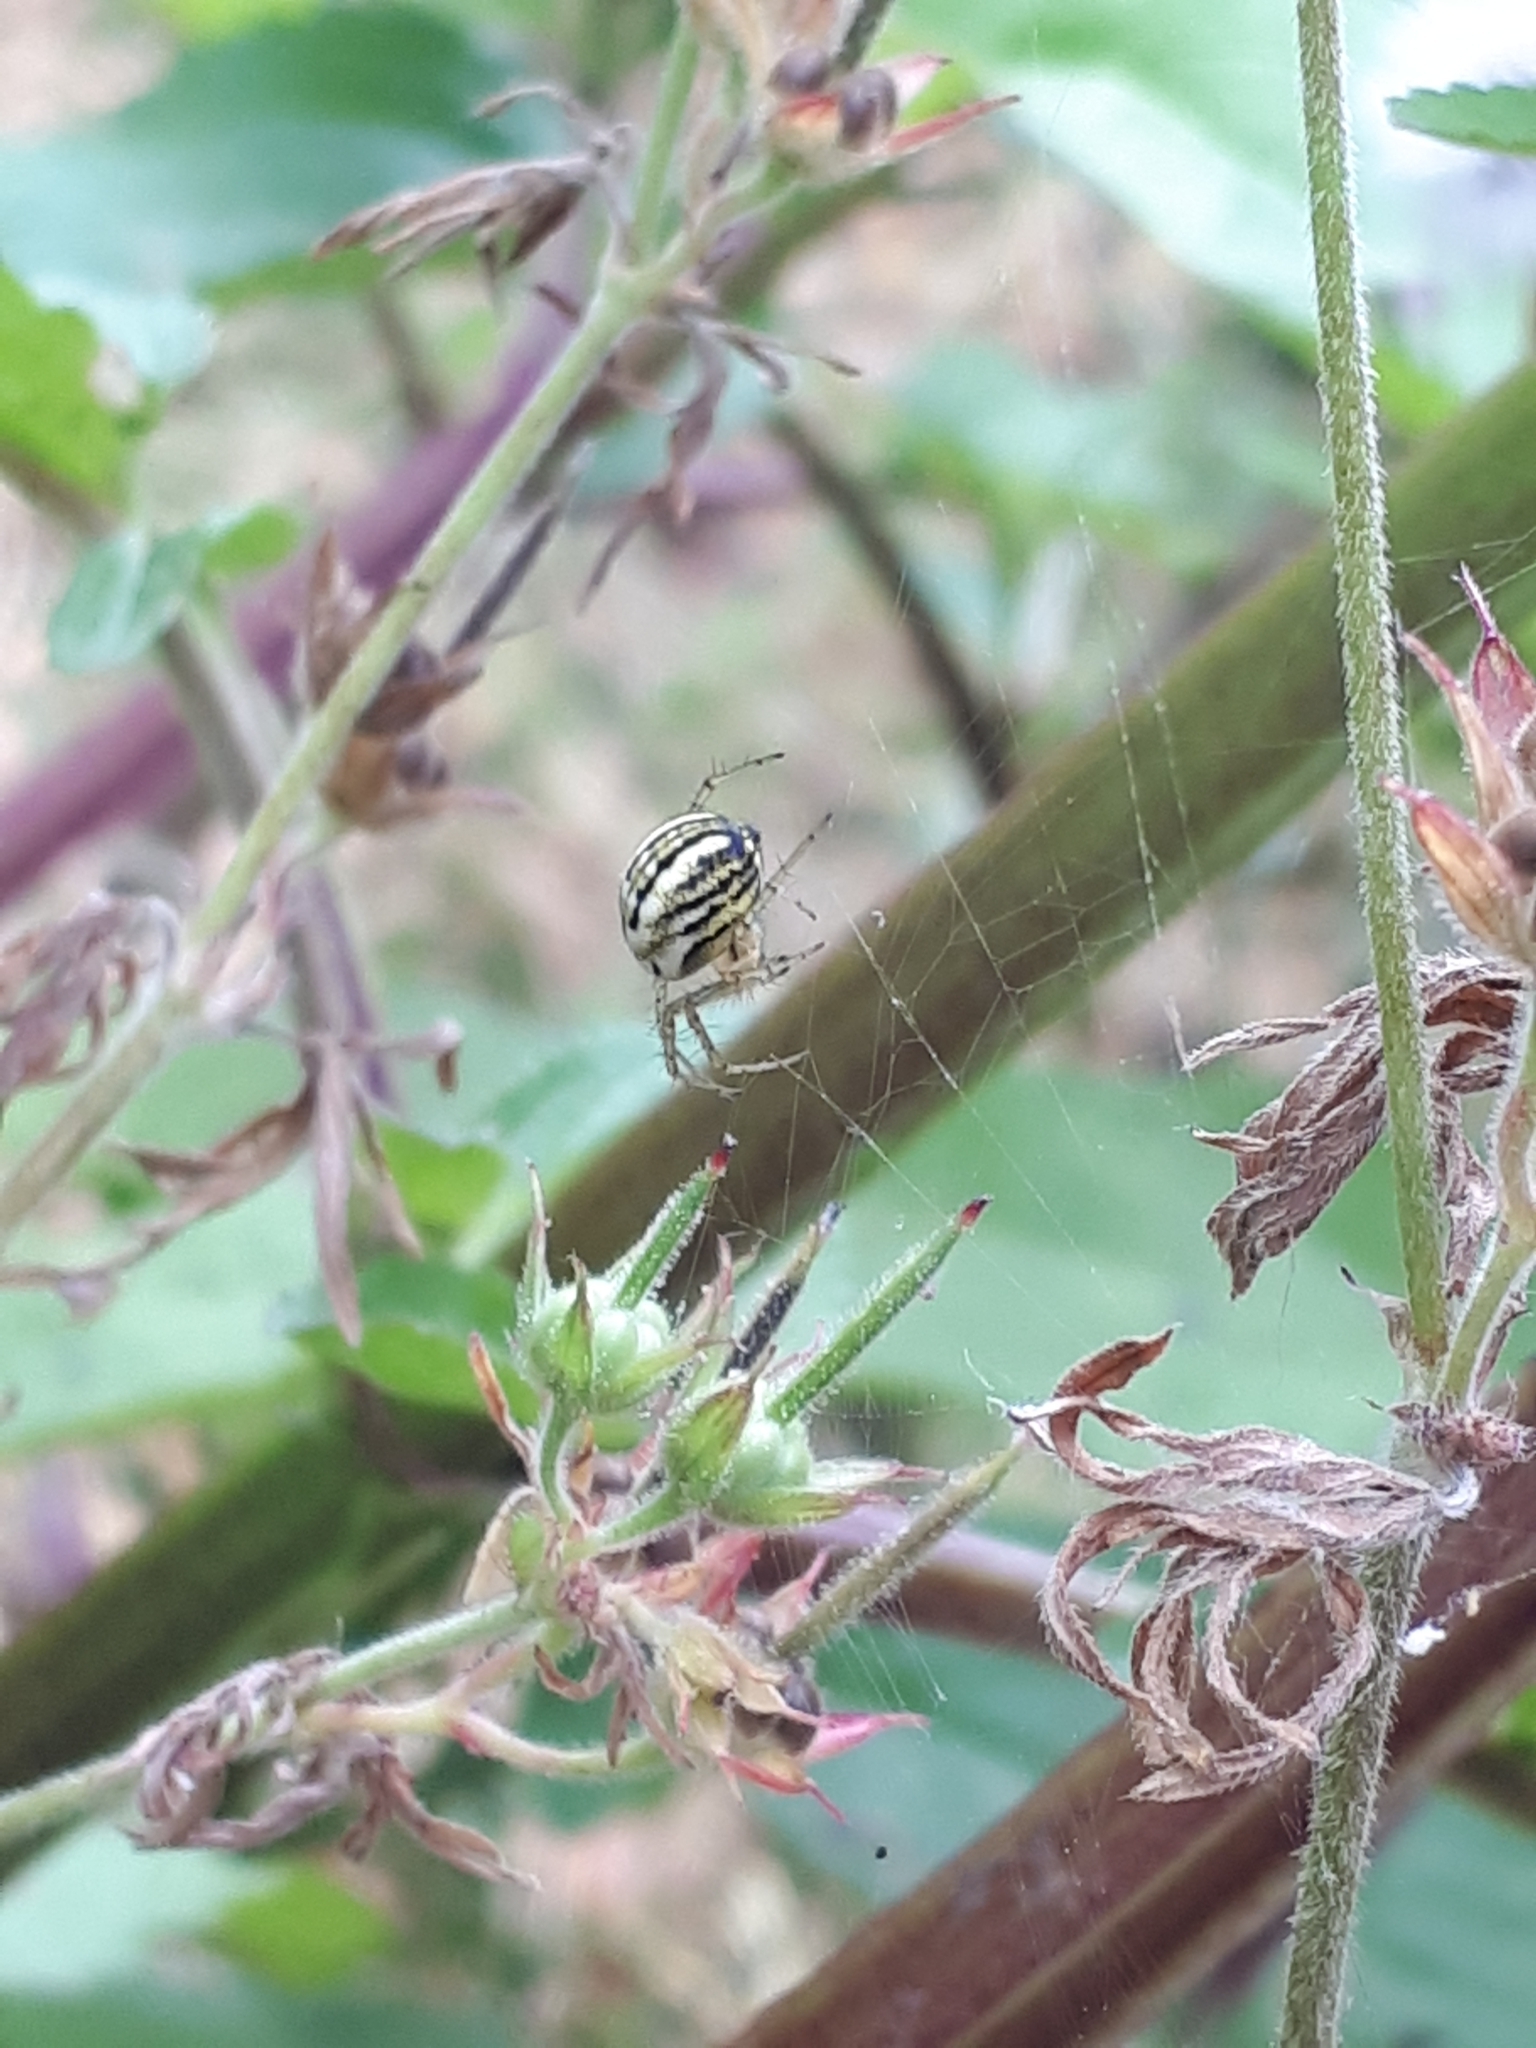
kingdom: Animalia
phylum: Arthropoda
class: Arachnida
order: Araneae
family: Araneidae
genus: Mangora
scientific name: Mangora acalypha
